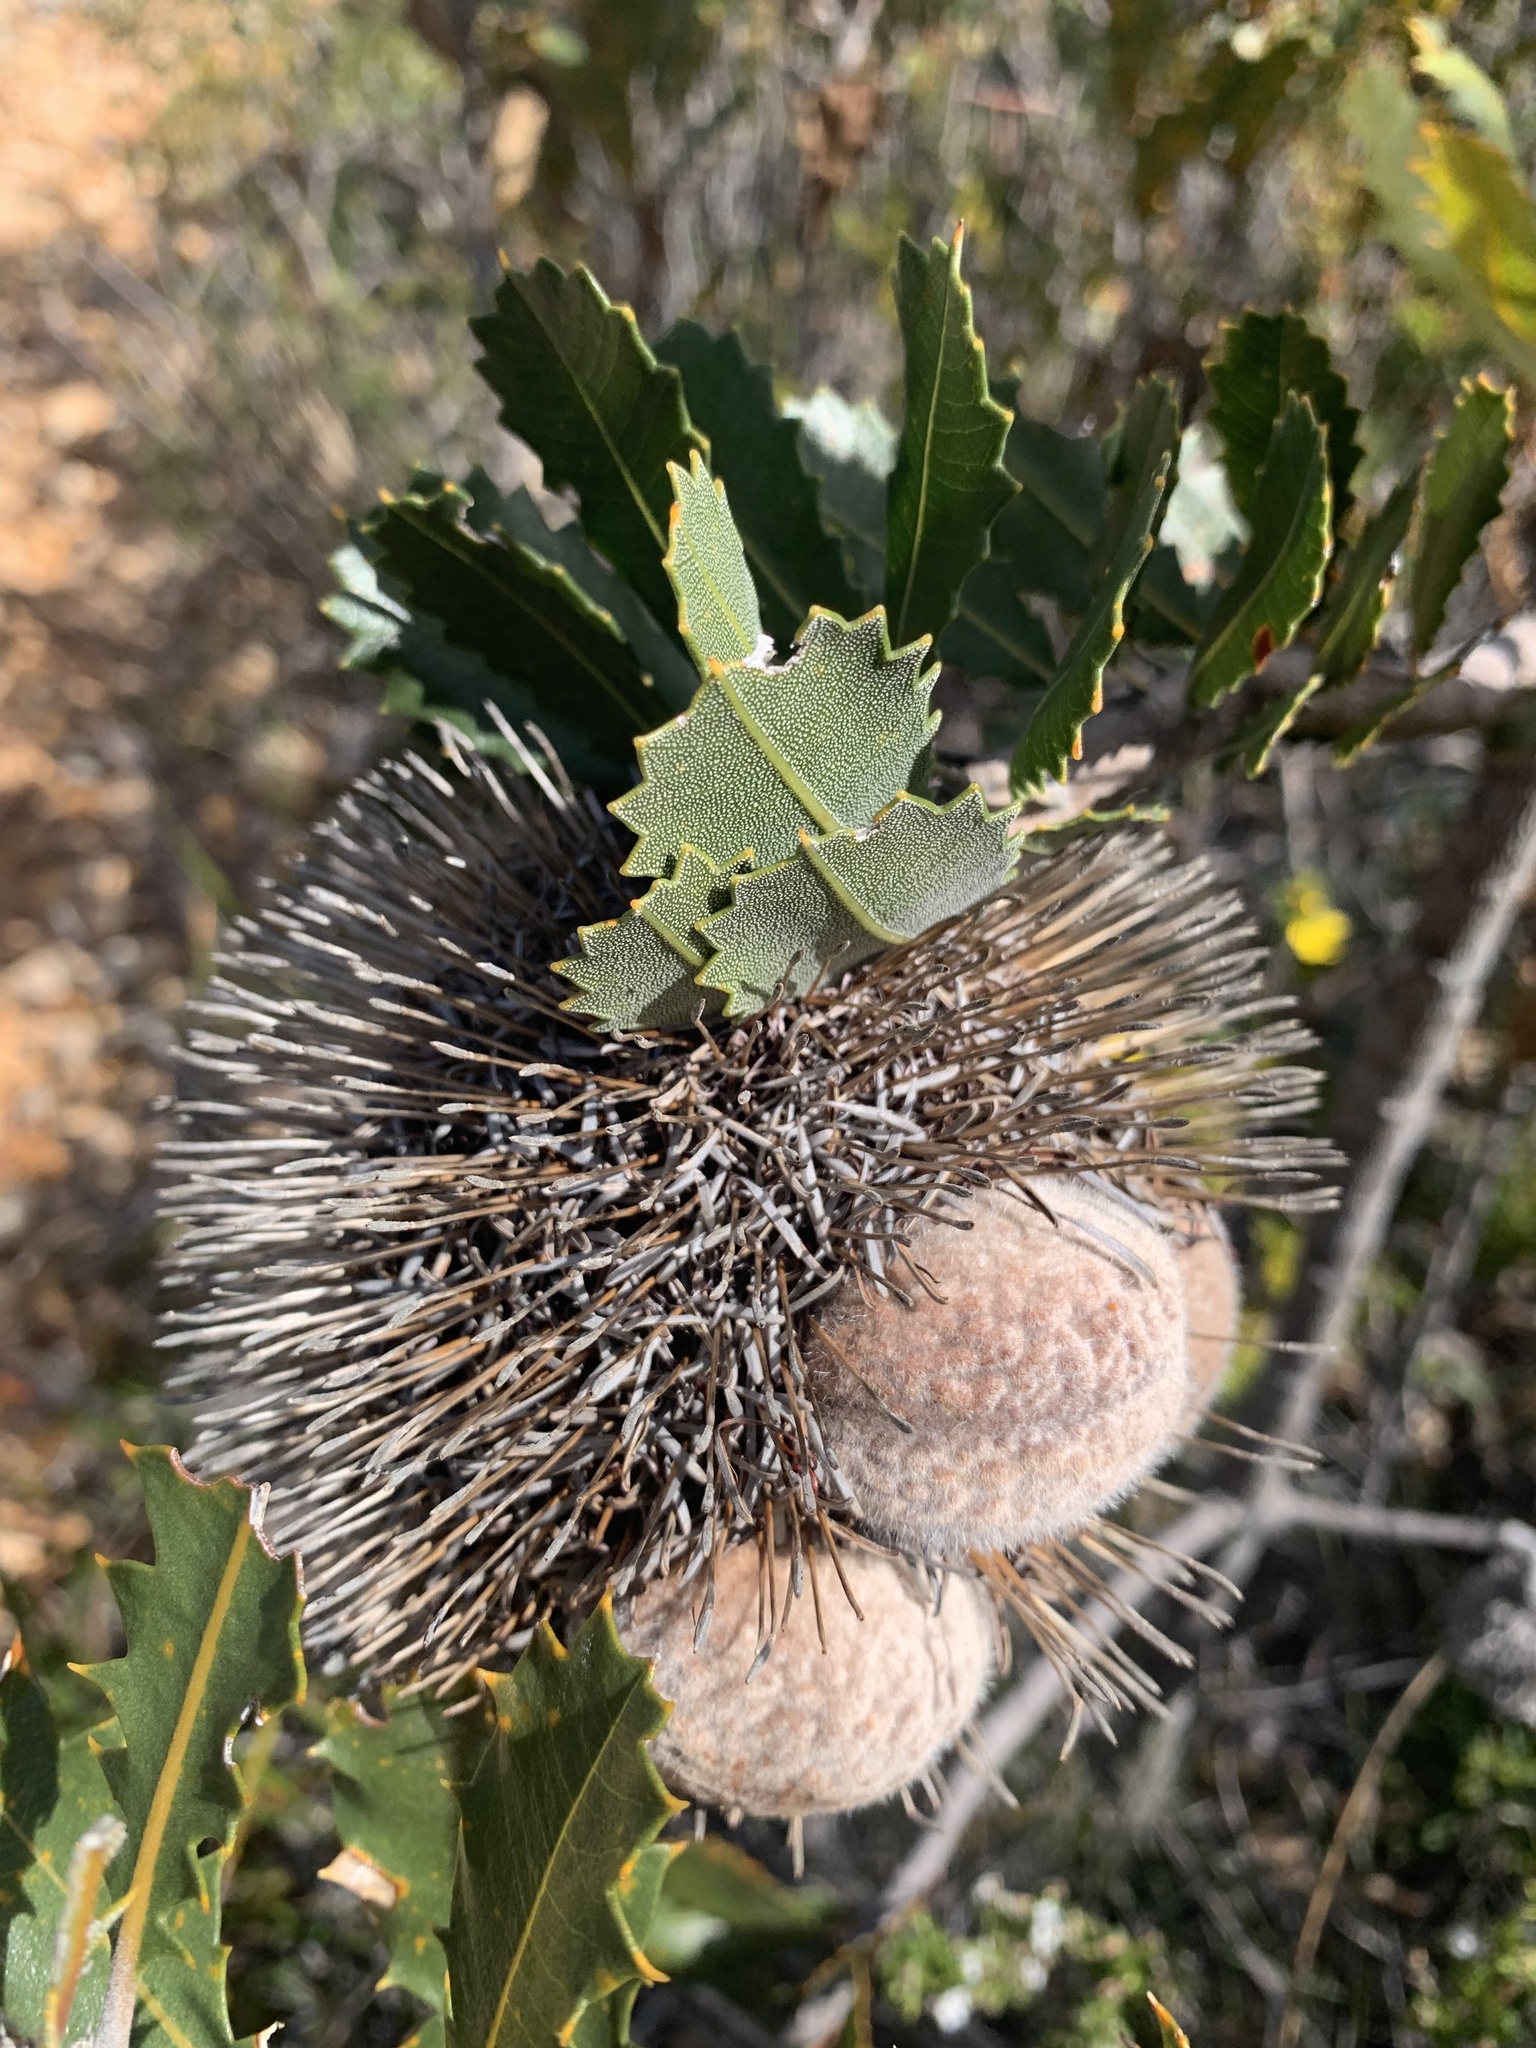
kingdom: Plantae
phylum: Tracheophyta
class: Magnoliopsida
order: Proteales
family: Proteaceae
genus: Banksia
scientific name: Banksia lemanniana
